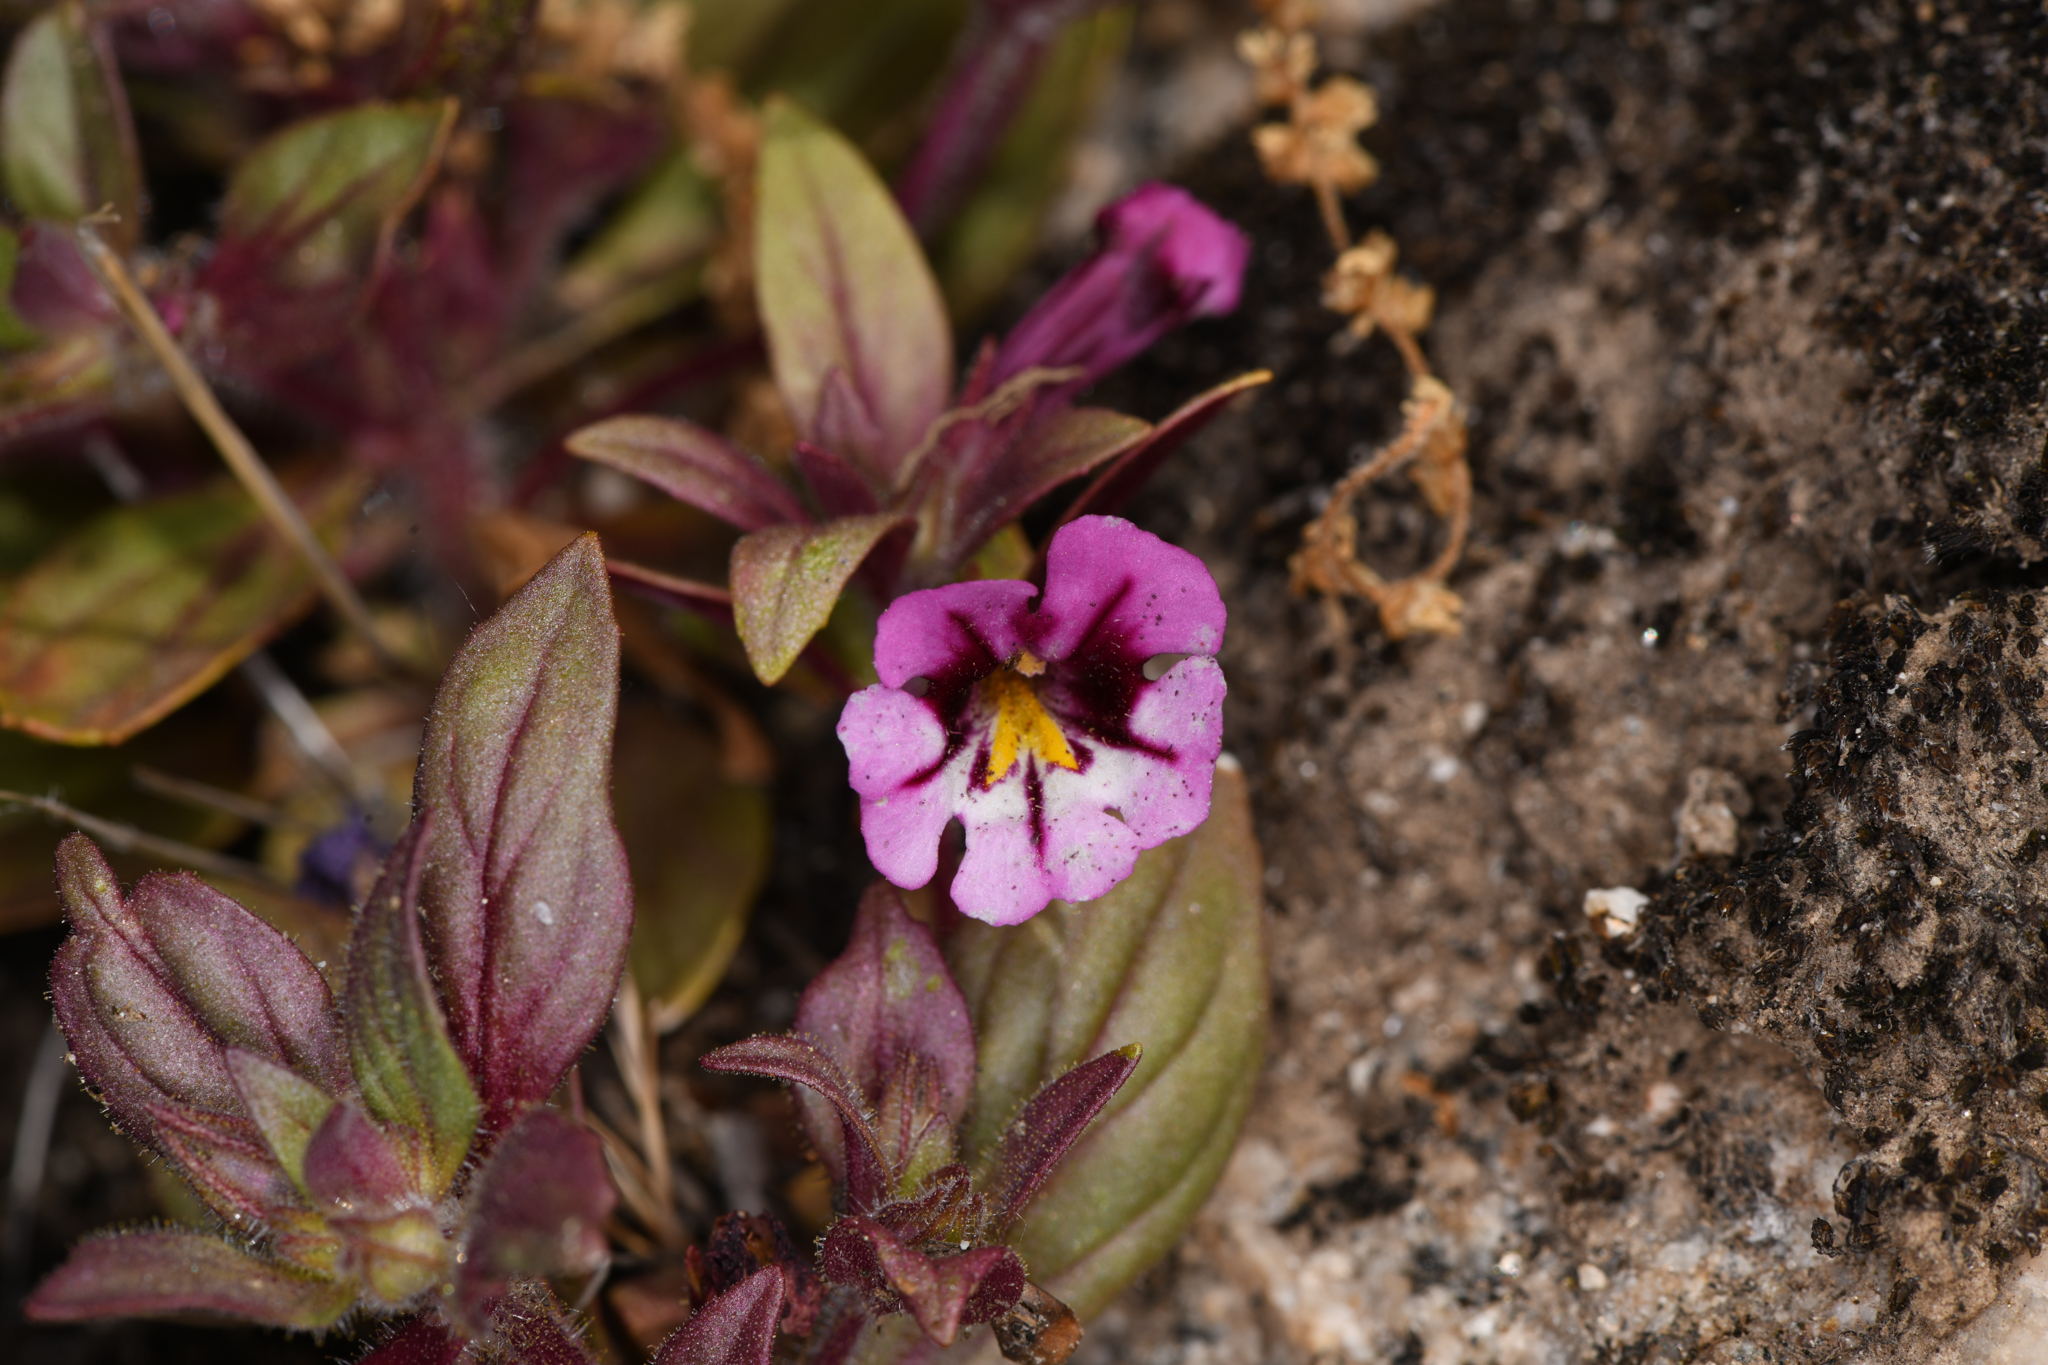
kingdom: Plantae
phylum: Tracheophyta
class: Magnoliopsida
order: Lamiales
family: Phrymaceae
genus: Diplacus
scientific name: Diplacus graniticola
